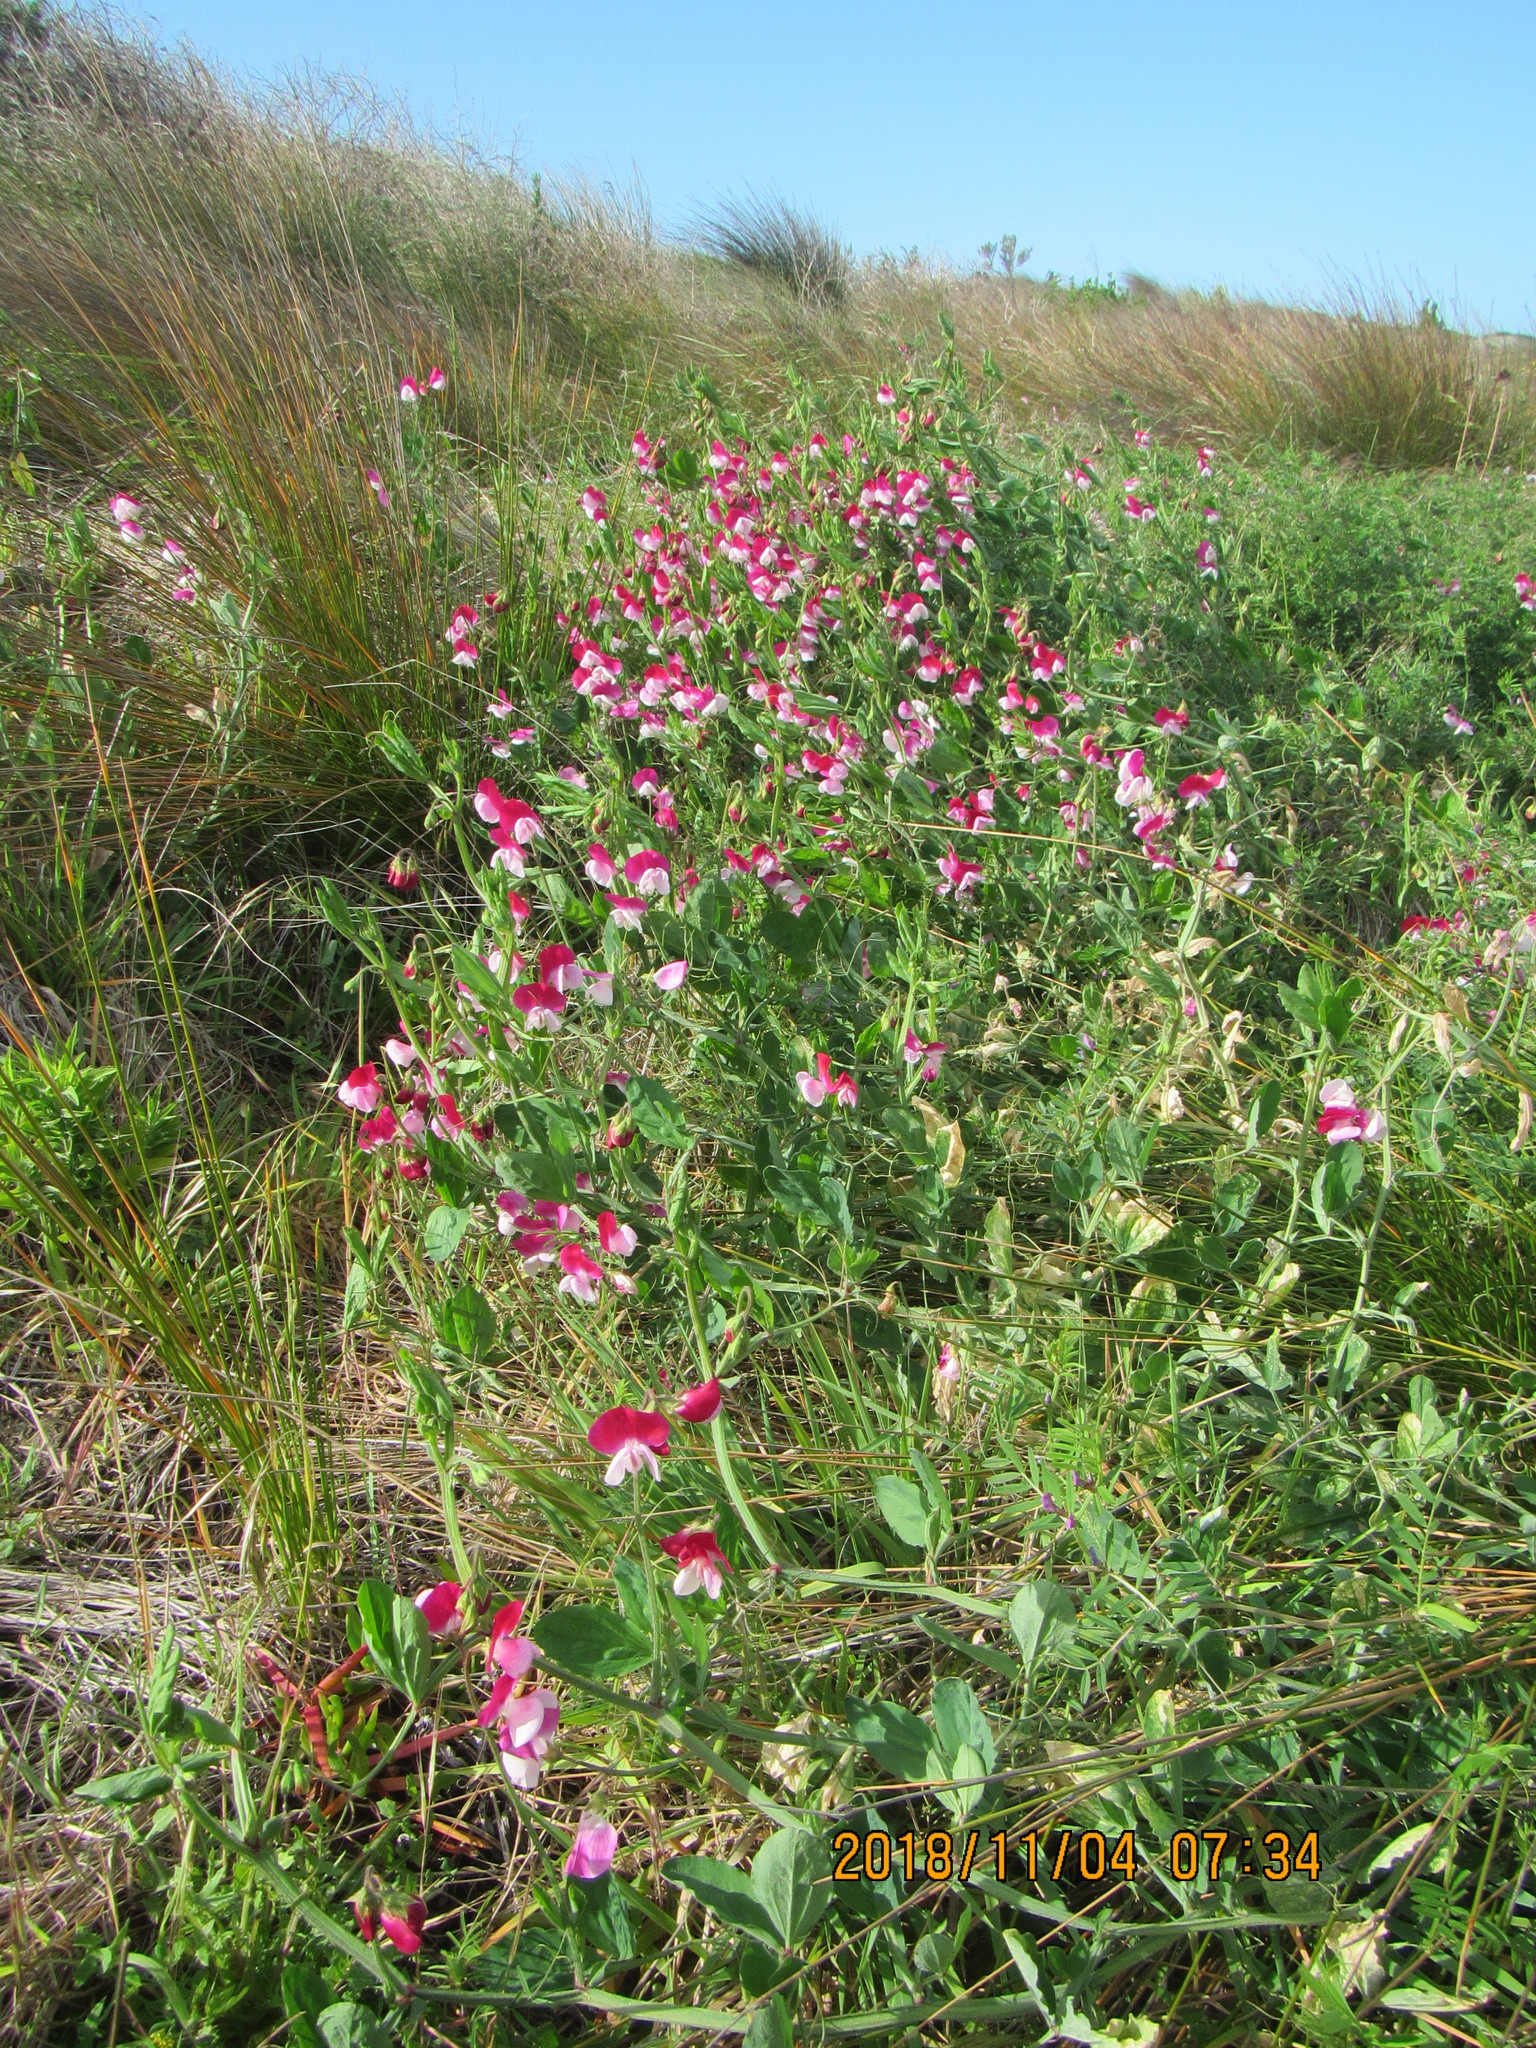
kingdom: Plantae
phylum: Tracheophyta
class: Magnoliopsida
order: Fabales
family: Fabaceae
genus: Lathyrus
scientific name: Lathyrus odoratus
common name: Sweet pea
